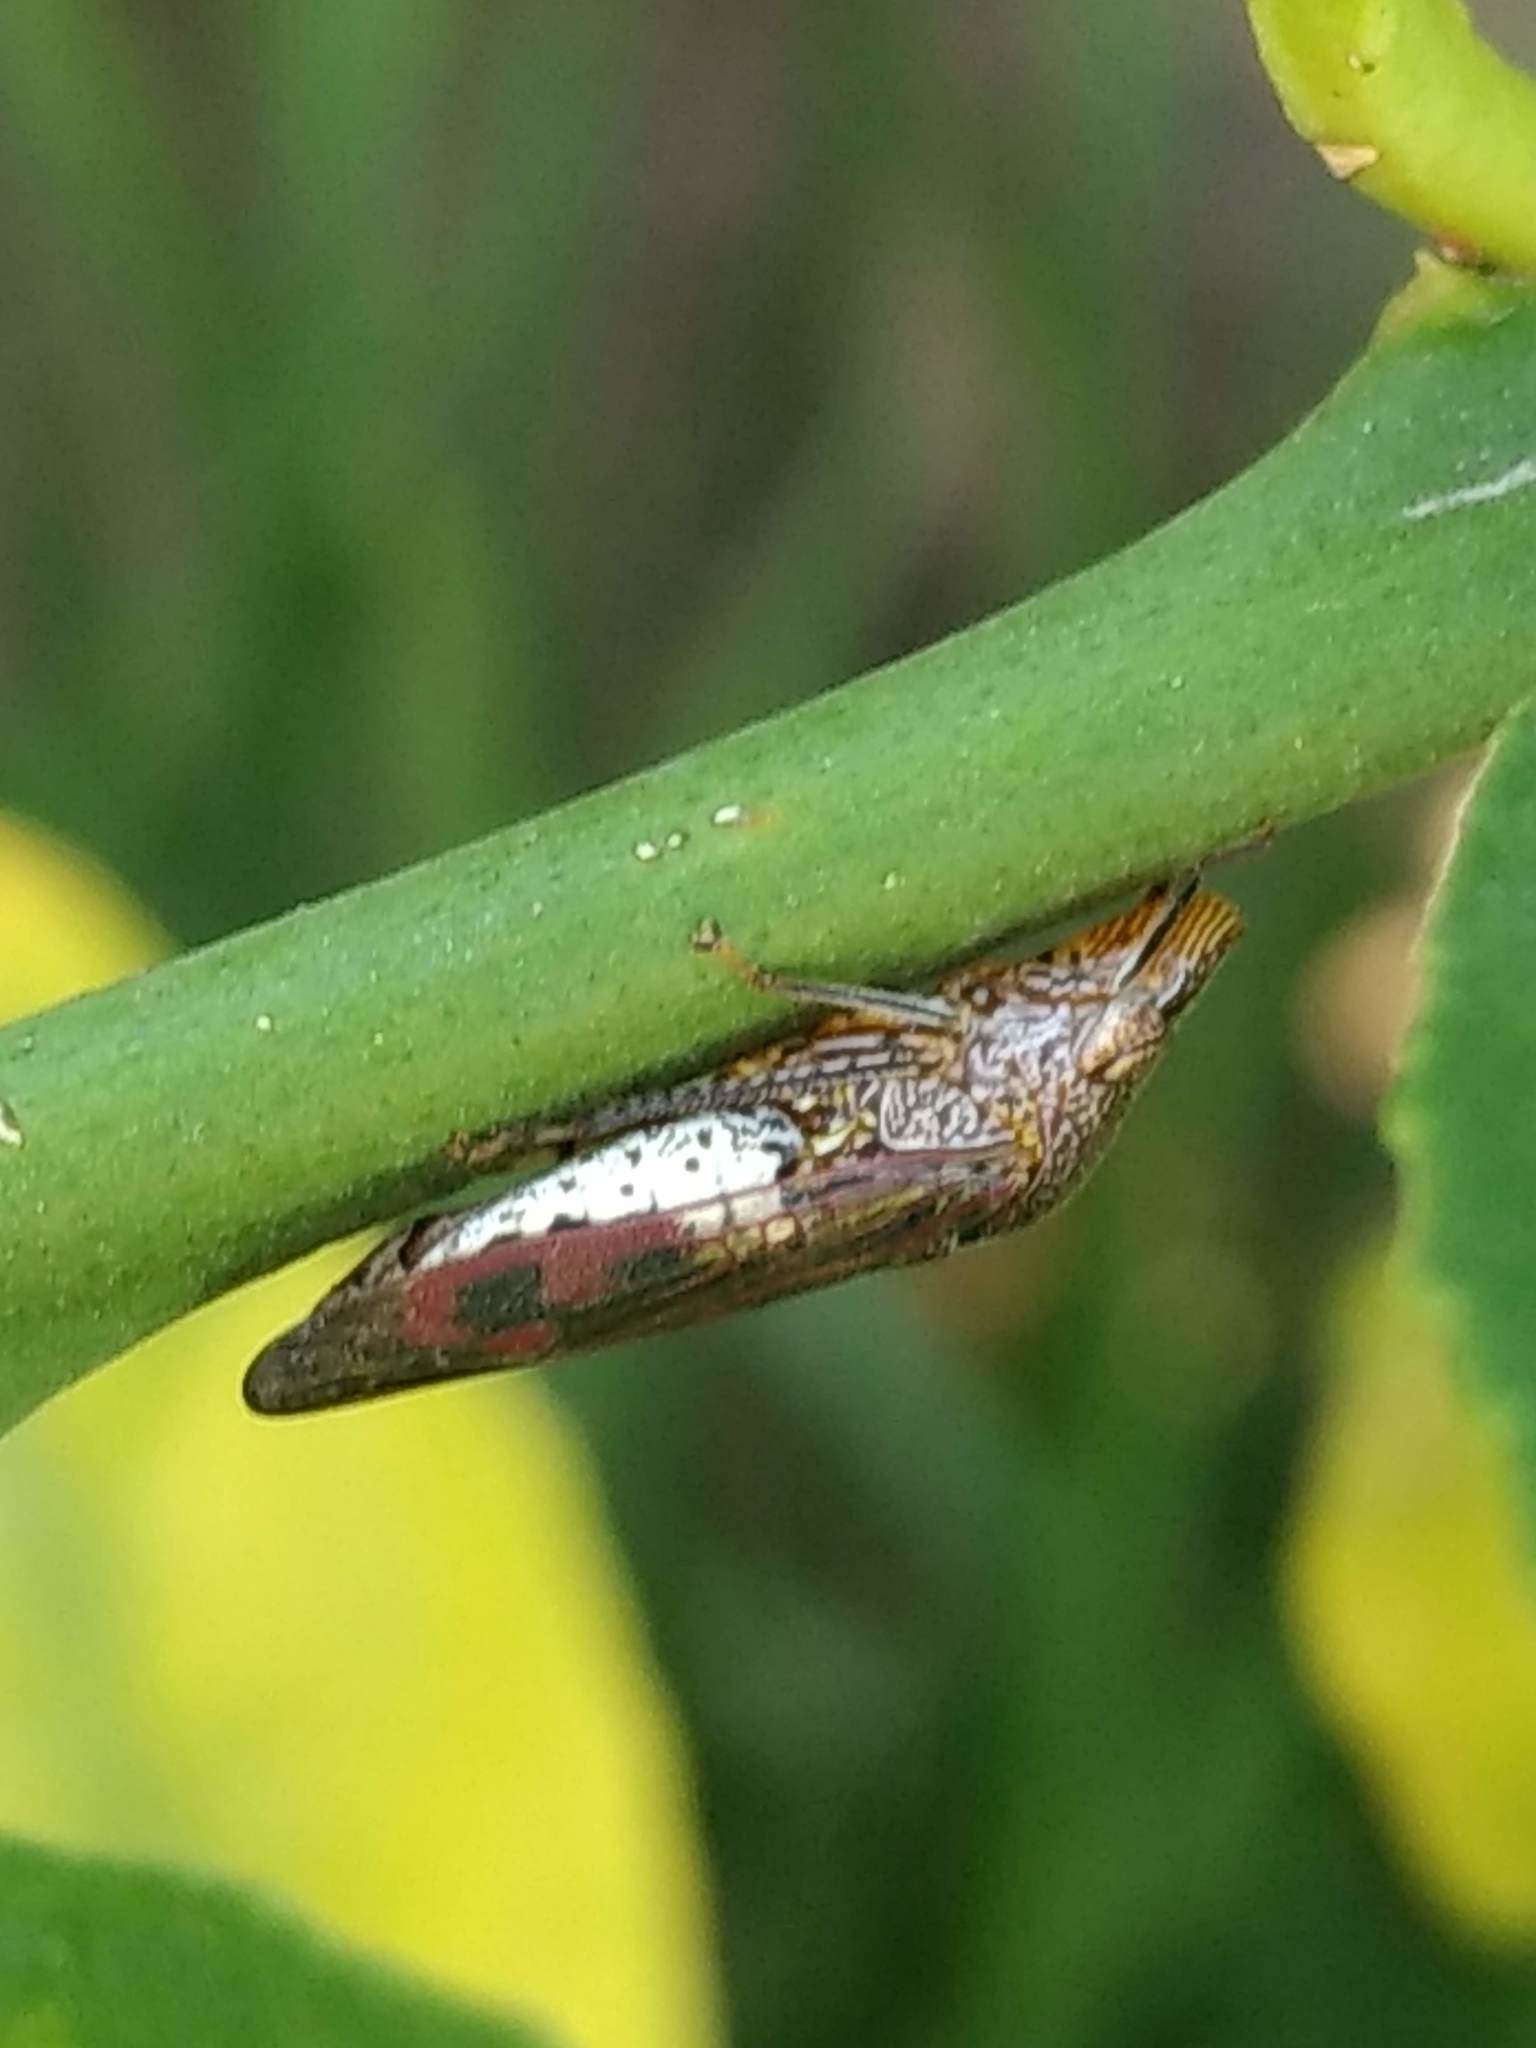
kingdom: Animalia
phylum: Arthropoda
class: Insecta
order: Hemiptera
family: Cicadellidae
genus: Homalodisca
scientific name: Homalodisca vitripennis
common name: Glassy-winged sharpshooter
